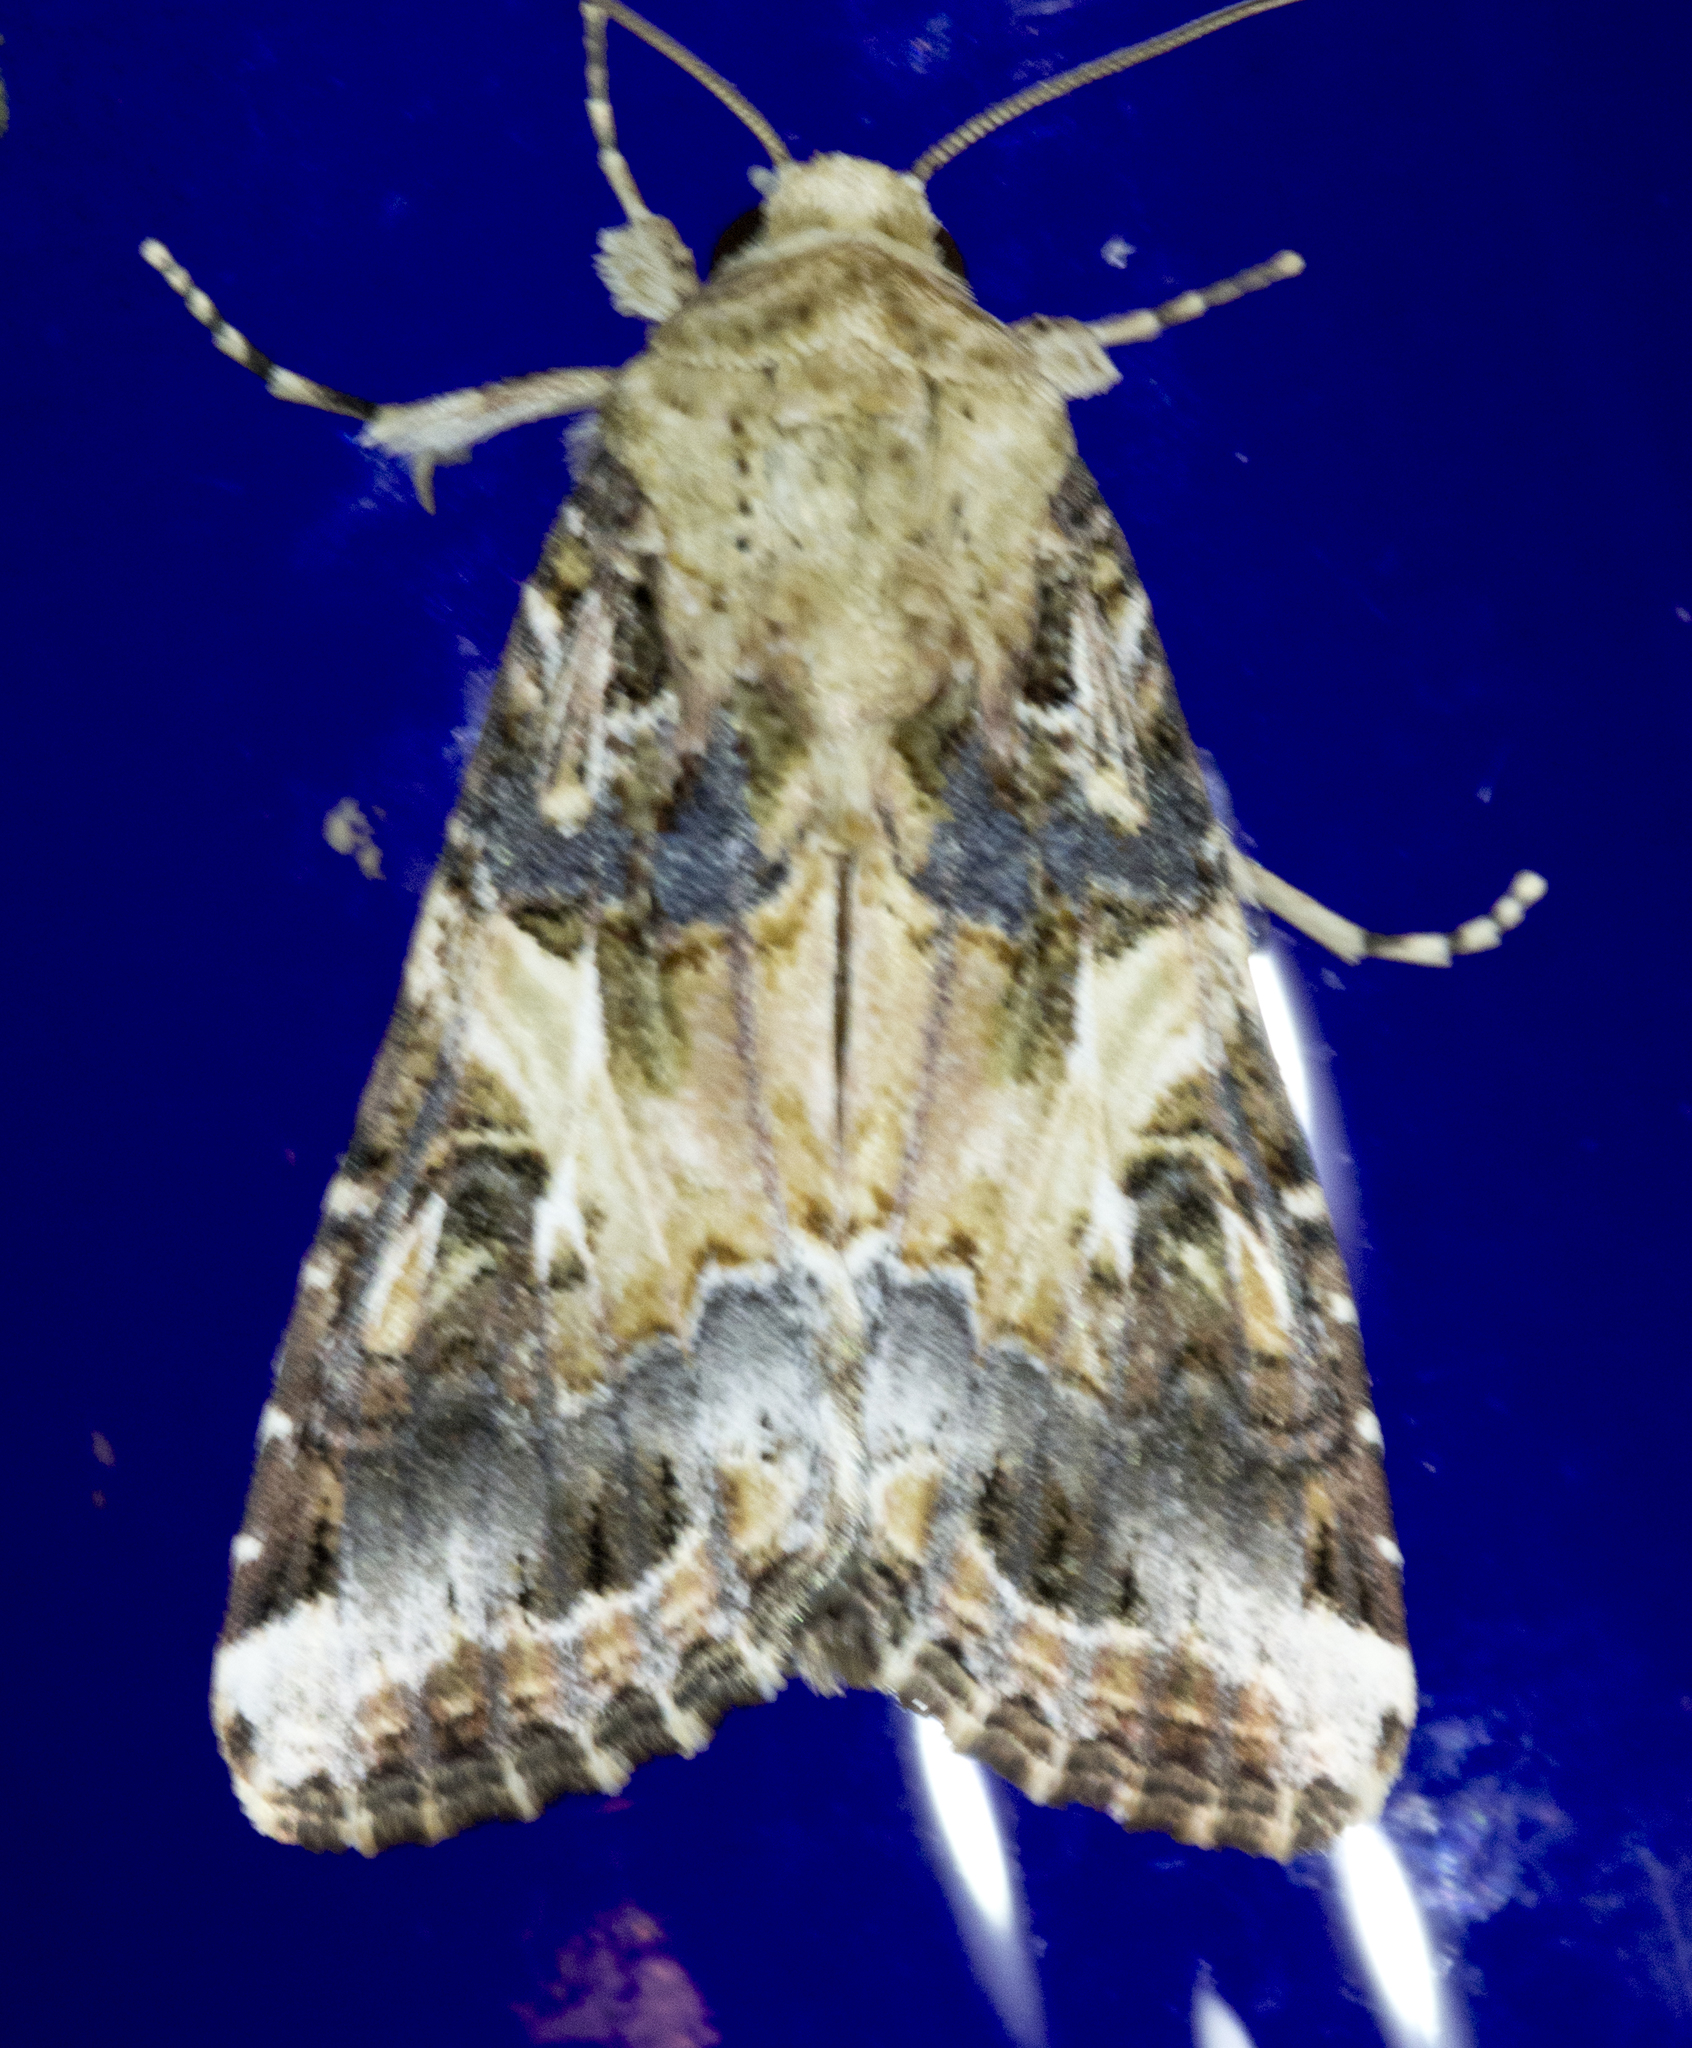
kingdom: Animalia
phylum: Arthropoda
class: Insecta
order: Lepidoptera
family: Noctuidae
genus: Spodoptera
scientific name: Spodoptera ornithogalli
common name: Yellow-striped armyworm
